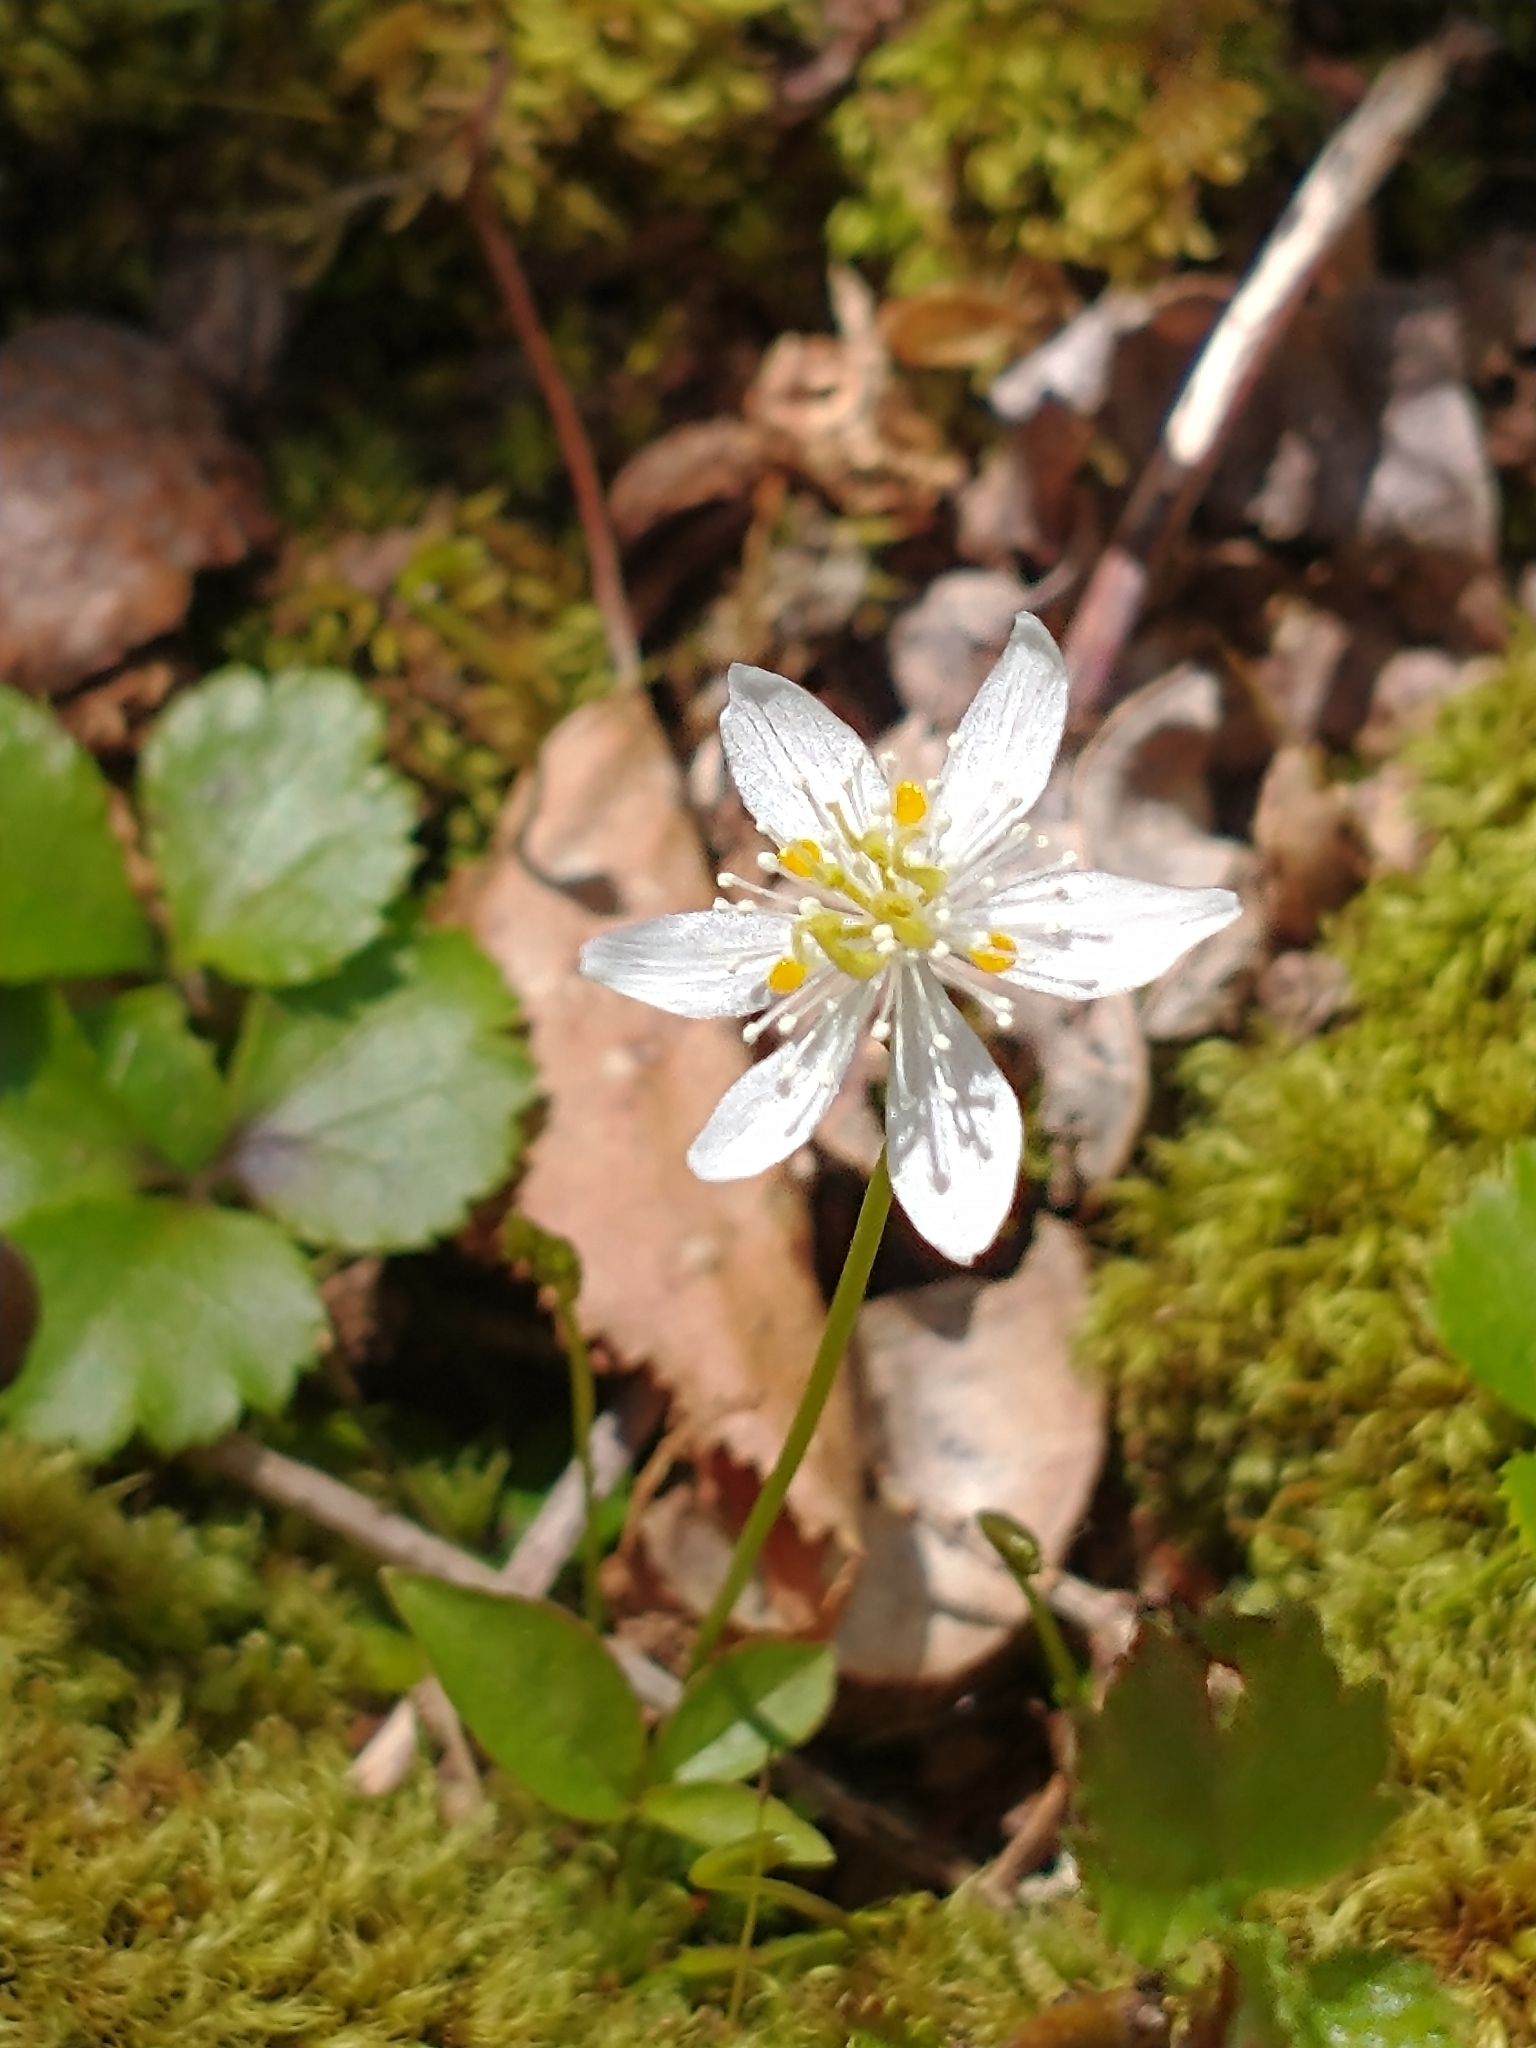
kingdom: Plantae
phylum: Tracheophyta
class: Magnoliopsida
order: Ranunculales
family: Ranunculaceae
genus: Coptis
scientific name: Coptis trifolia
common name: Canker-root
